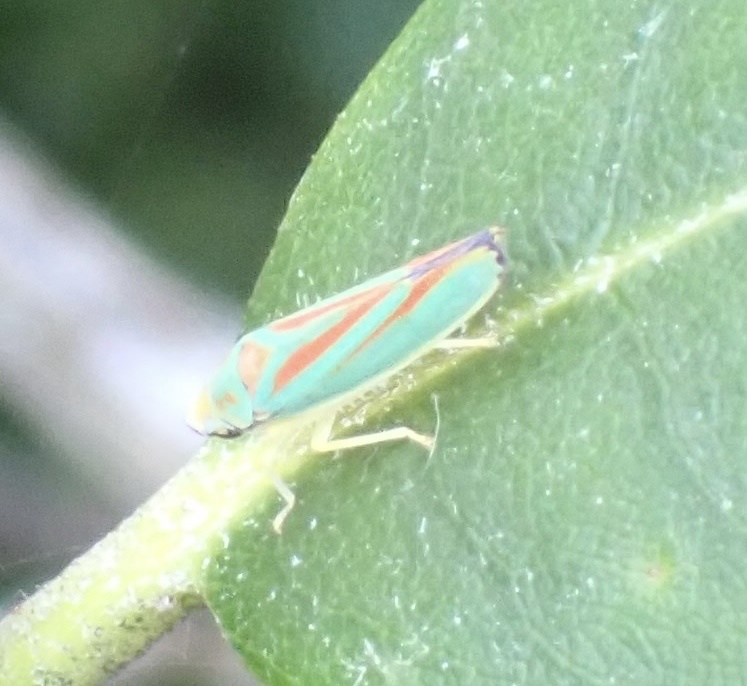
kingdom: Animalia
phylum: Arthropoda
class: Insecta
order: Hemiptera
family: Cicadellidae
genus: Graphocephala
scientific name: Graphocephala fennahi
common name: Rhododendron leafhopper
